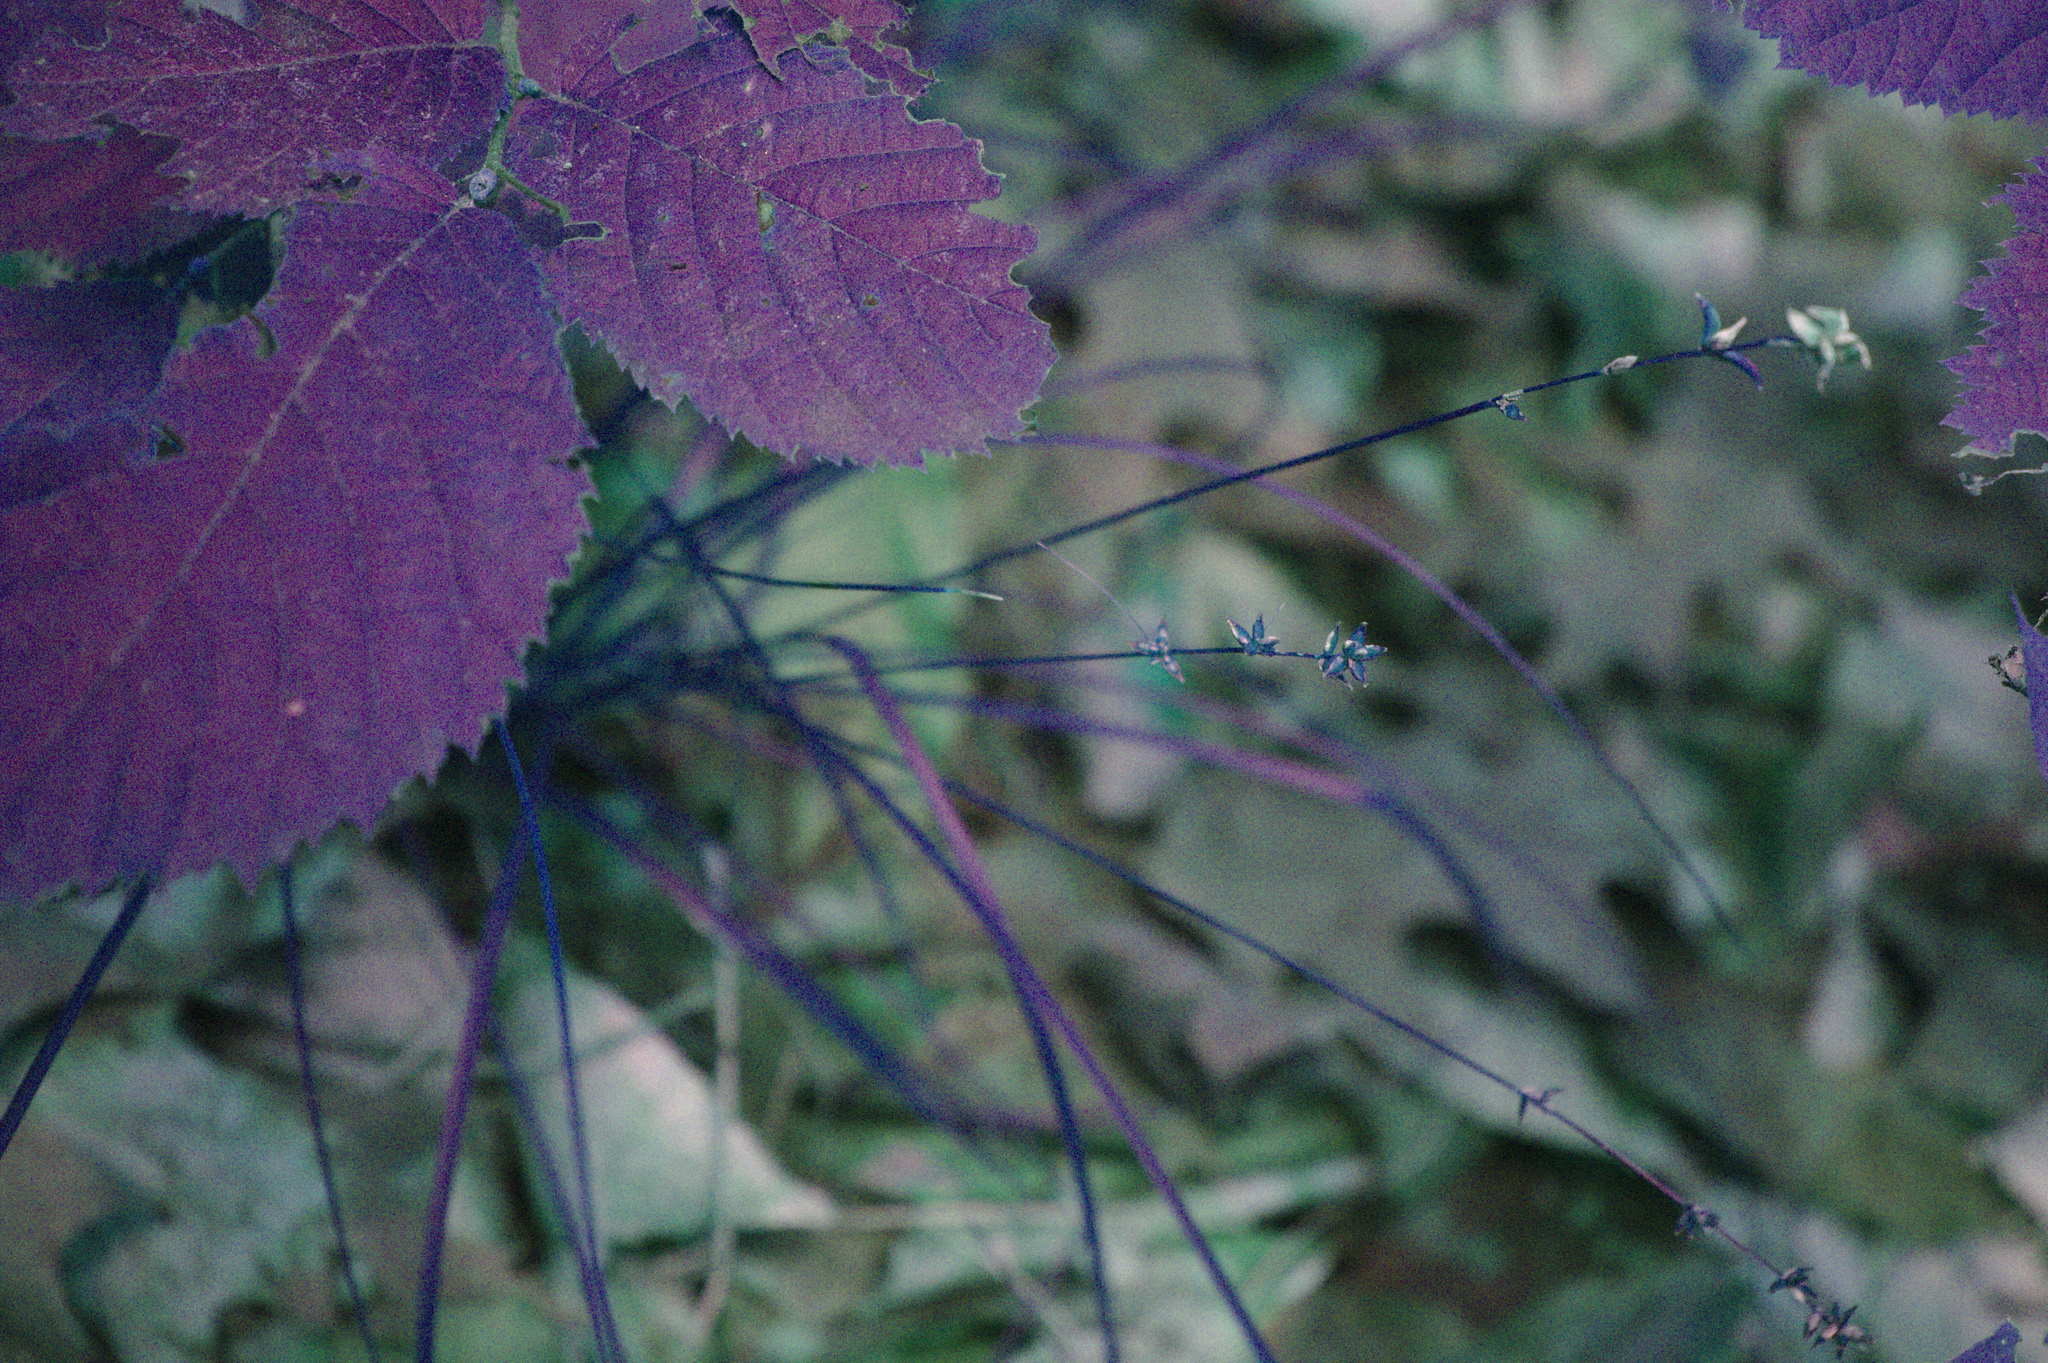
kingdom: Plantae
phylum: Tracheophyta
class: Liliopsida
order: Poales
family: Cyperaceae
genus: Carex
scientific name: Carex rosea
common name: Curly-styled wood sedge
